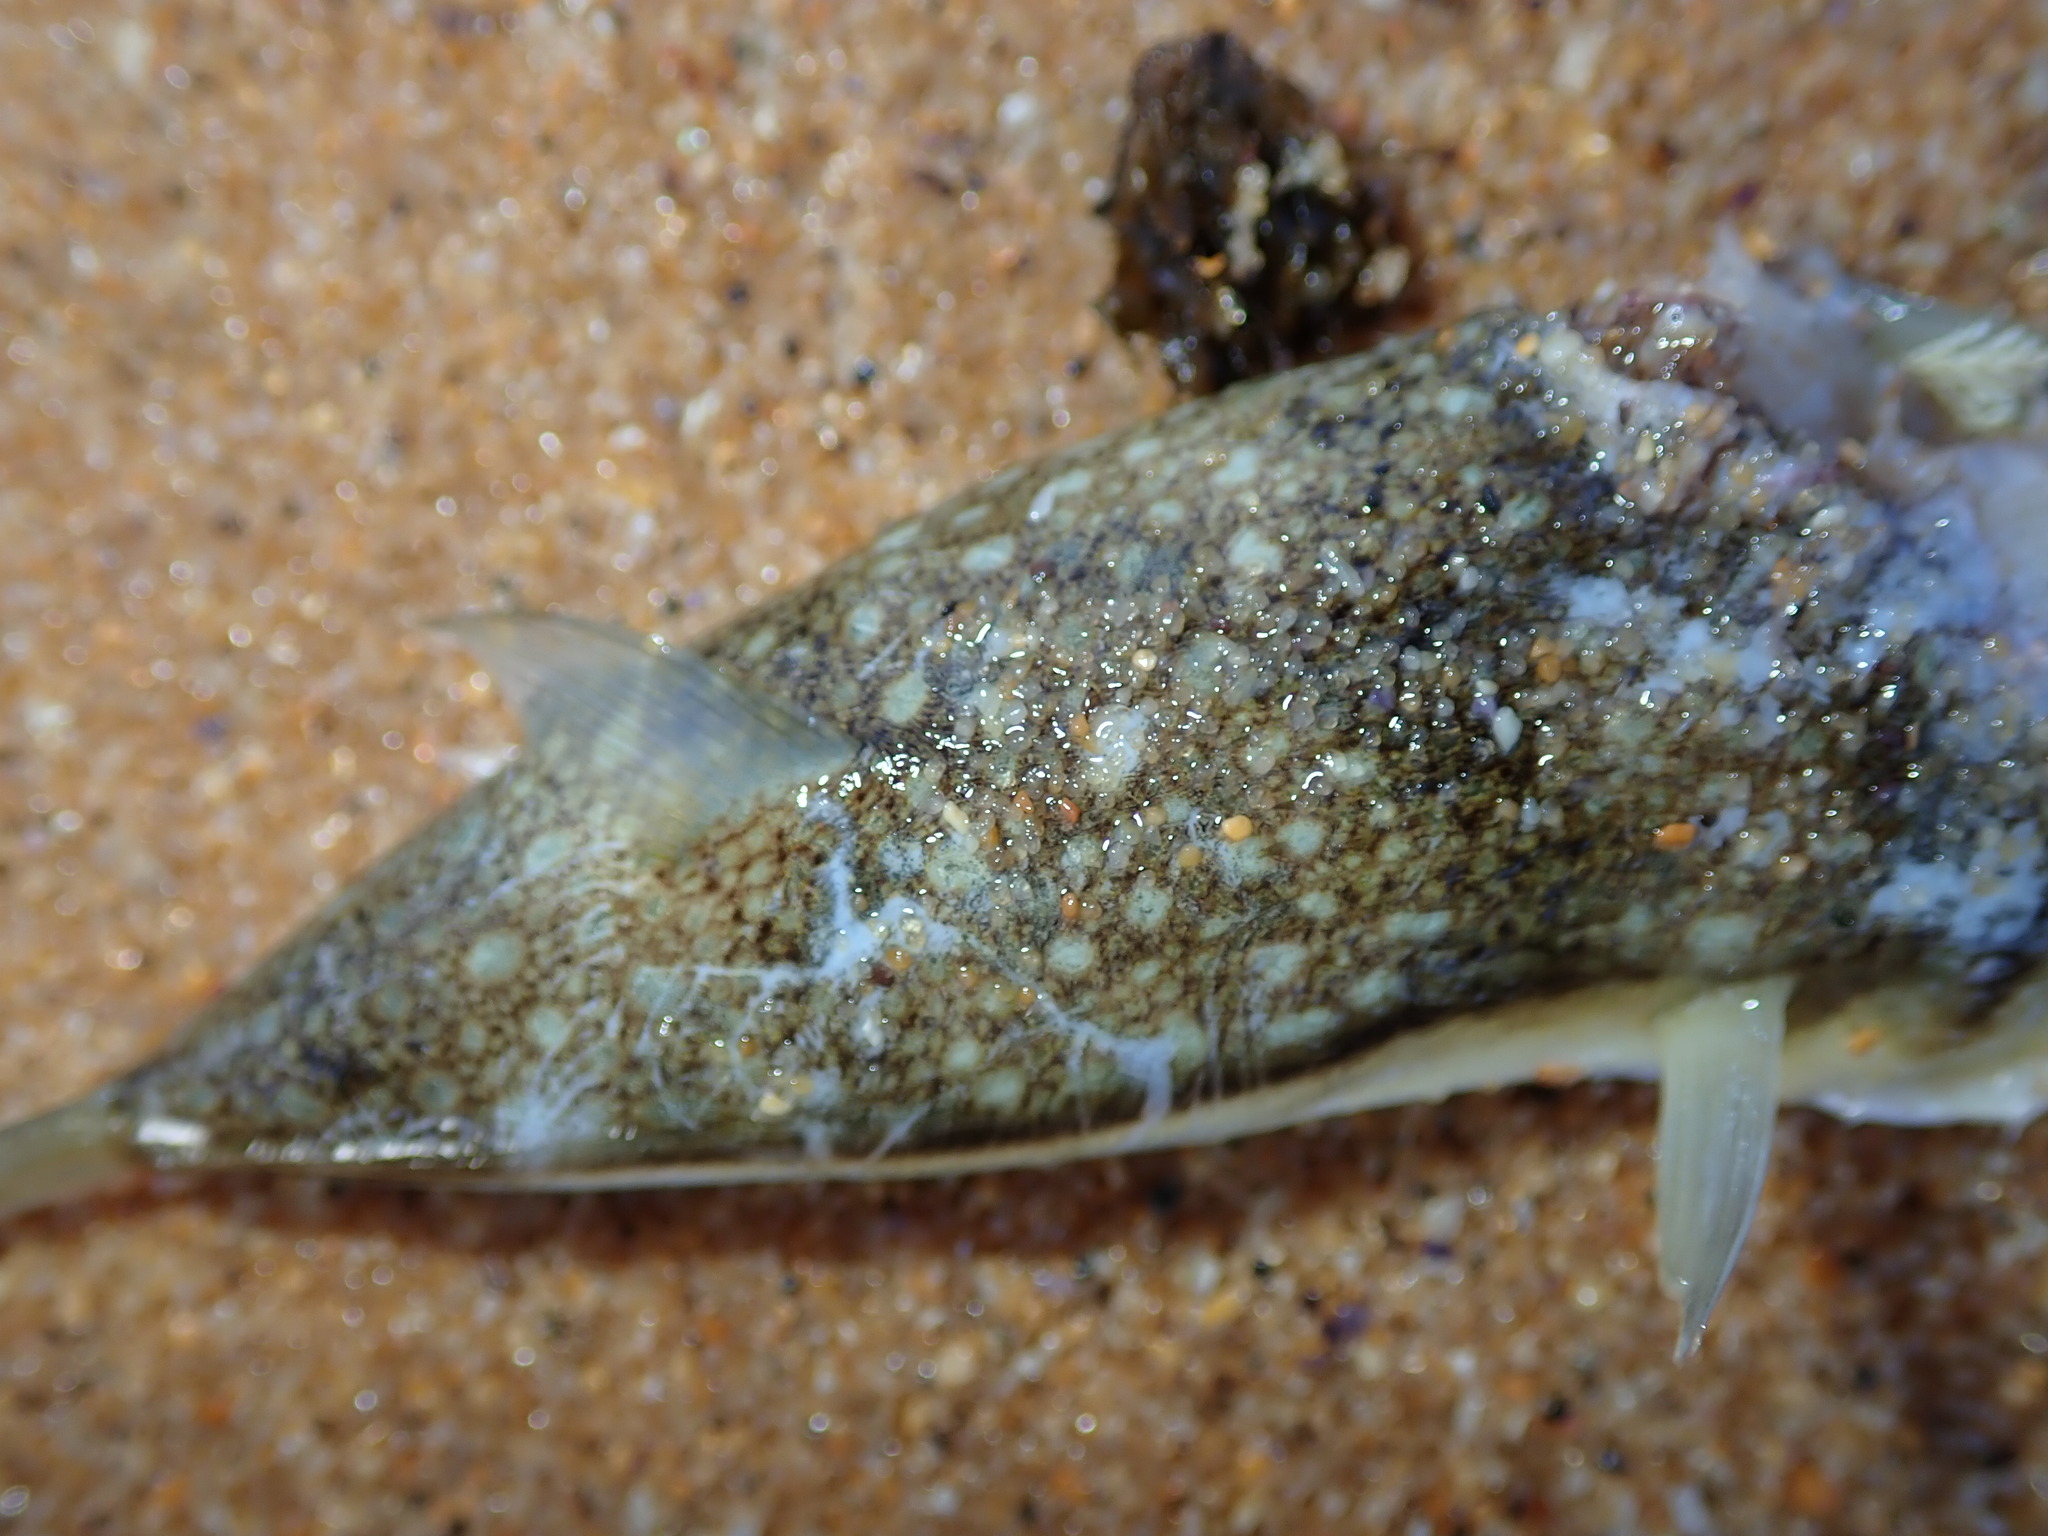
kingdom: Animalia
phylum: Chordata
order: Tetraodontiformes
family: Tetraodontidae
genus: Torquigener
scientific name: Torquigener pleurogramma
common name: Banded toadfish
